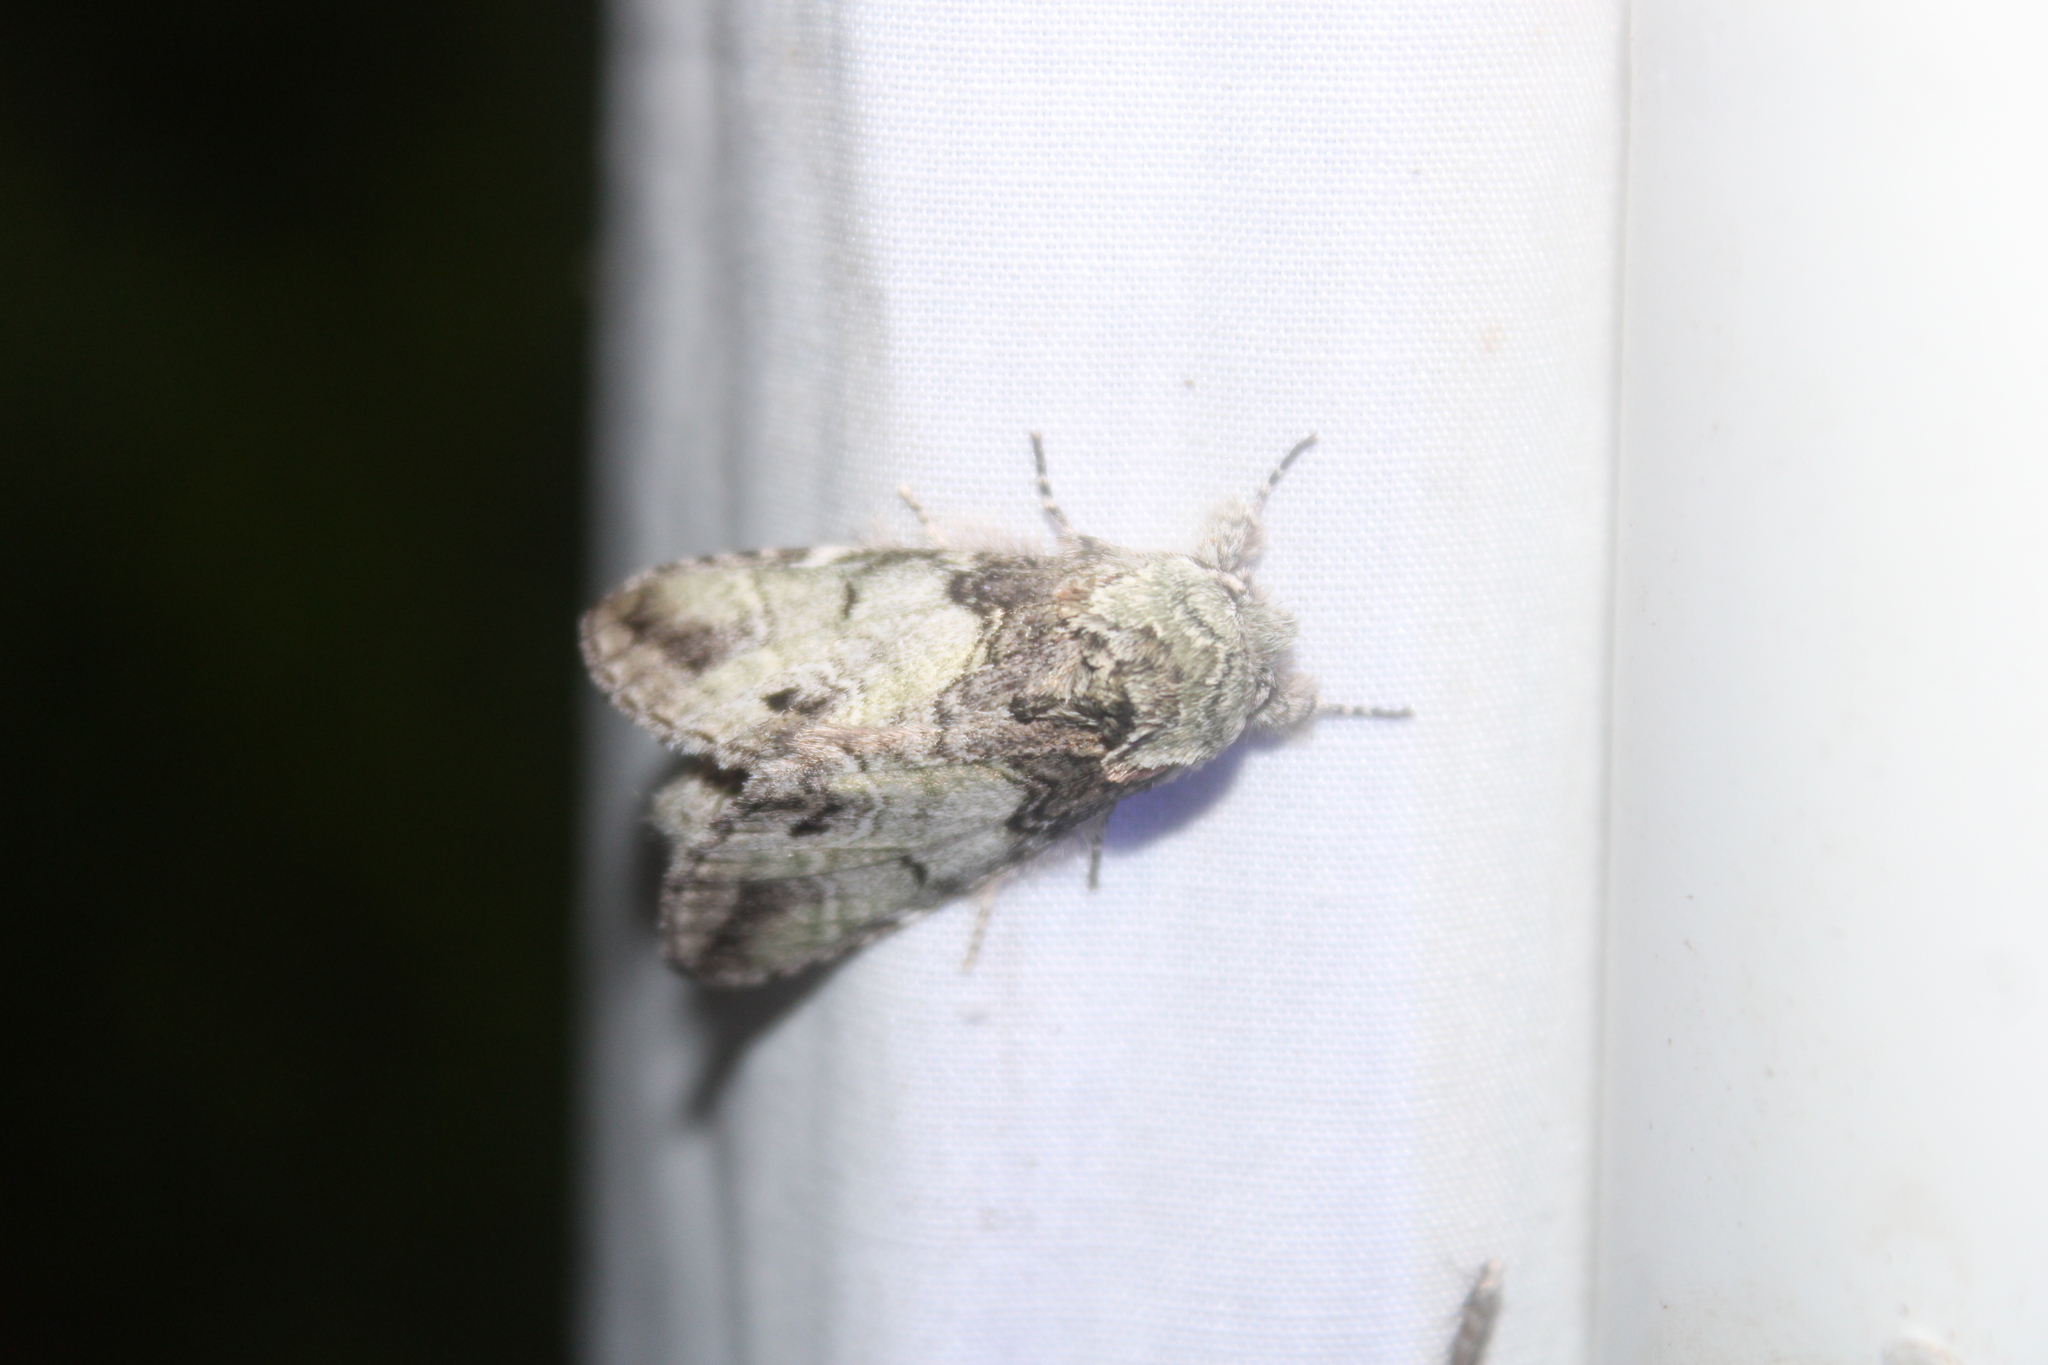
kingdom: Animalia
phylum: Arthropoda
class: Insecta
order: Lepidoptera
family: Notodontidae
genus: Macrurocampa
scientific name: Macrurocampa marthesia
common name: Mottled prominent
